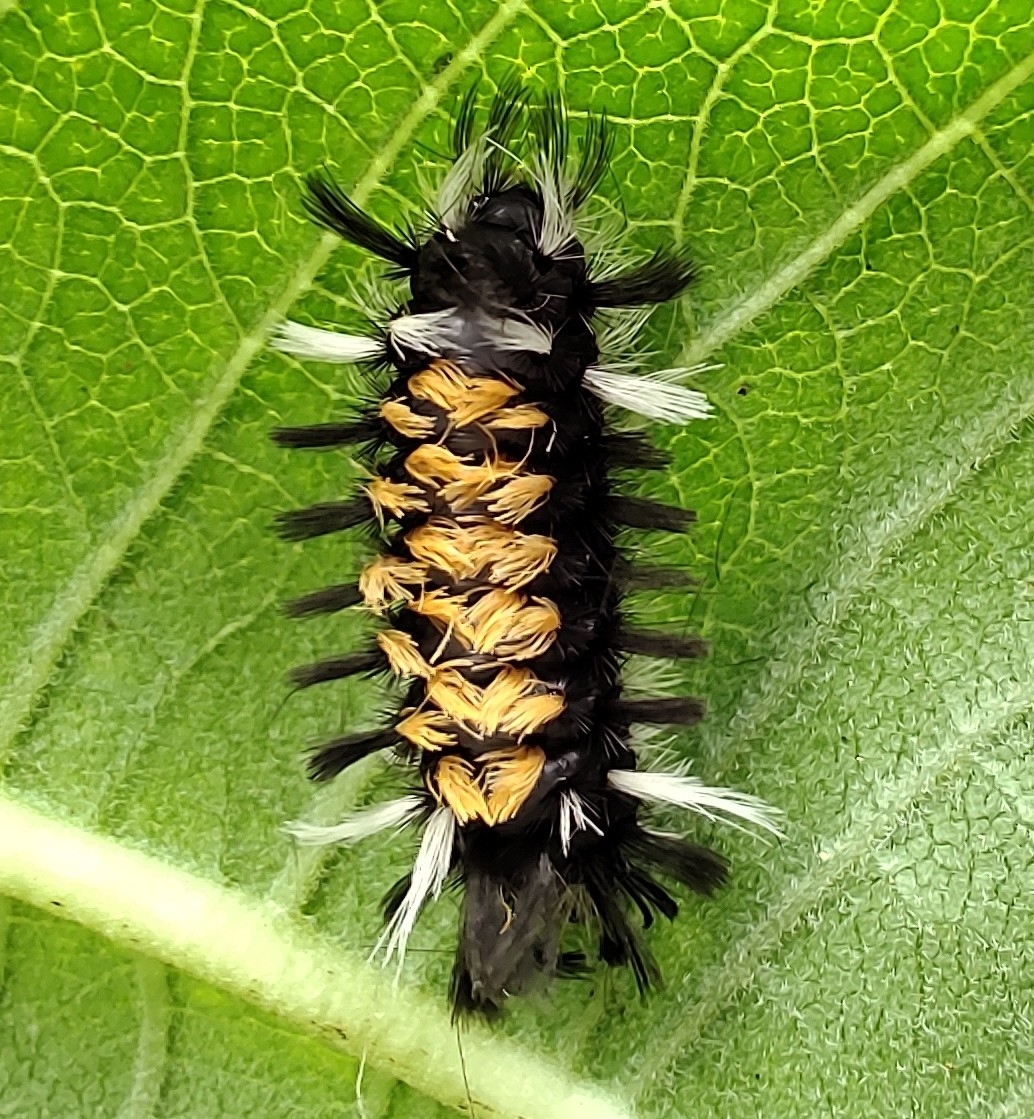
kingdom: Animalia
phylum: Arthropoda
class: Insecta
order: Lepidoptera
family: Erebidae
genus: Euchaetes
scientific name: Euchaetes egle
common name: Milkweed tussock moth
